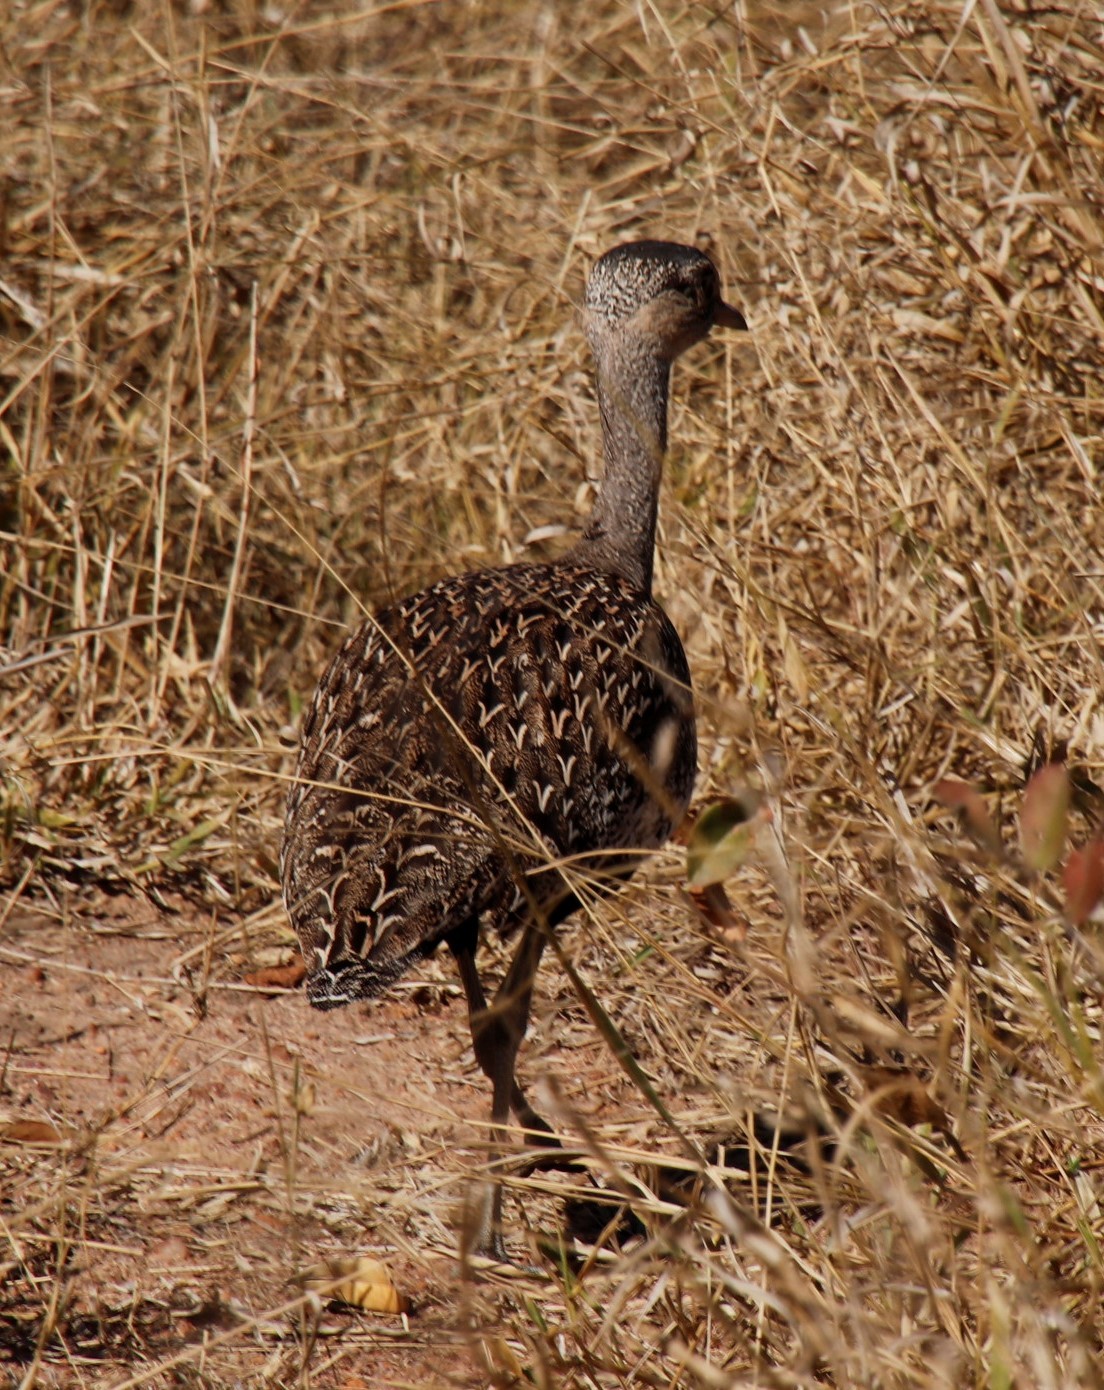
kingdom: Animalia
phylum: Chordata
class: Aves
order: Otidiformes
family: Otididae
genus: Lophotis
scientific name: Lophotis ruficrista
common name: Red-crested korhaan
